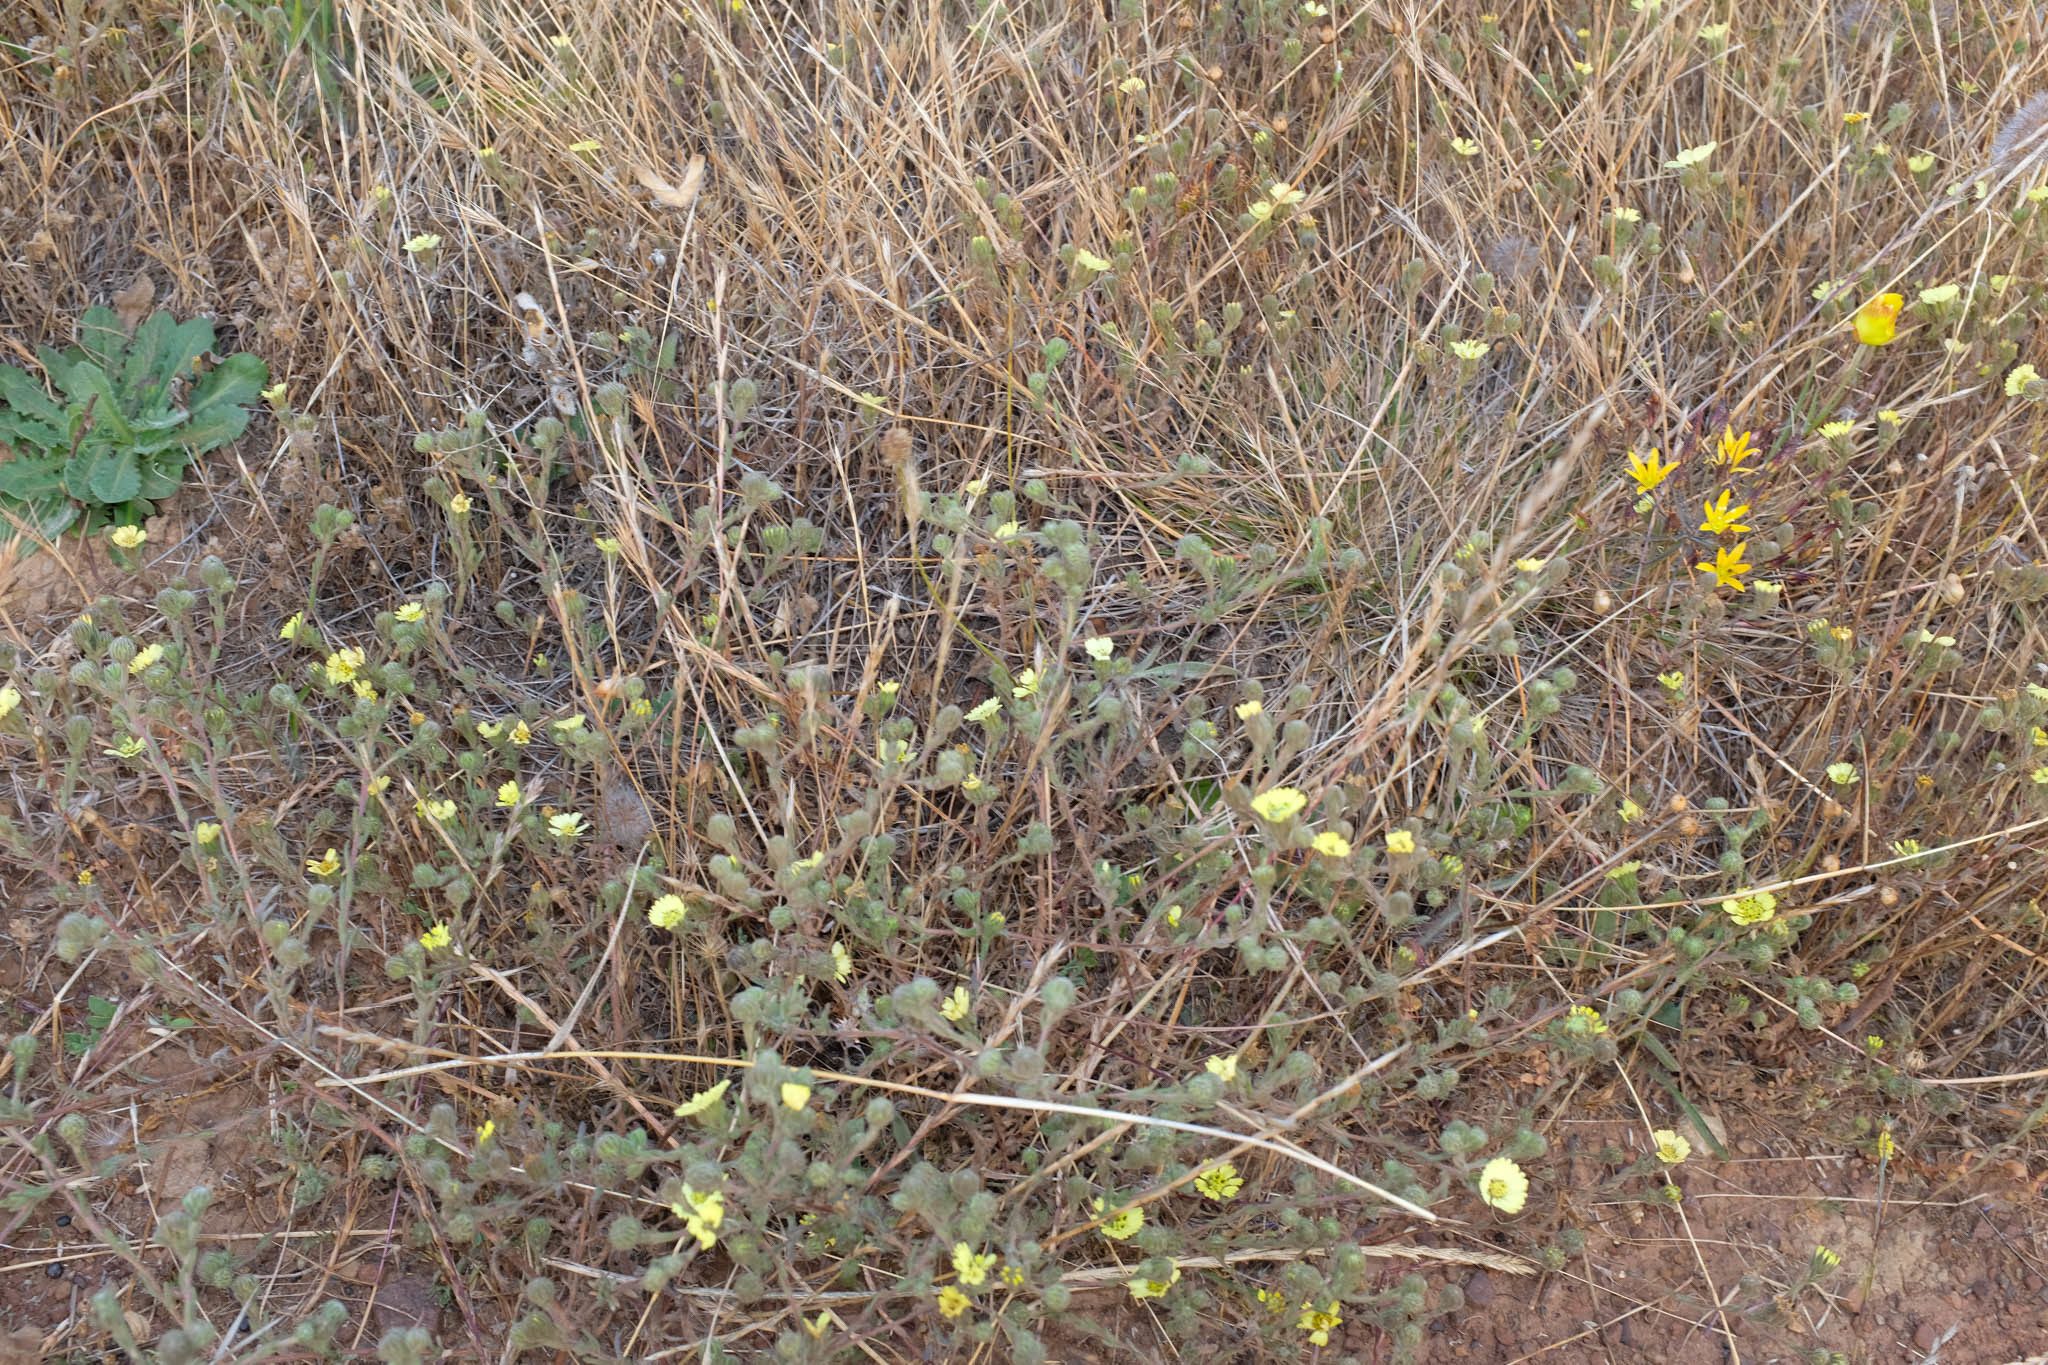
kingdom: Plantae
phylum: Tracheophyta
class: Magnoliopsida
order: Asterales
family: Asteraceae
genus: Deinandra
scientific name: Deinandra increscens
